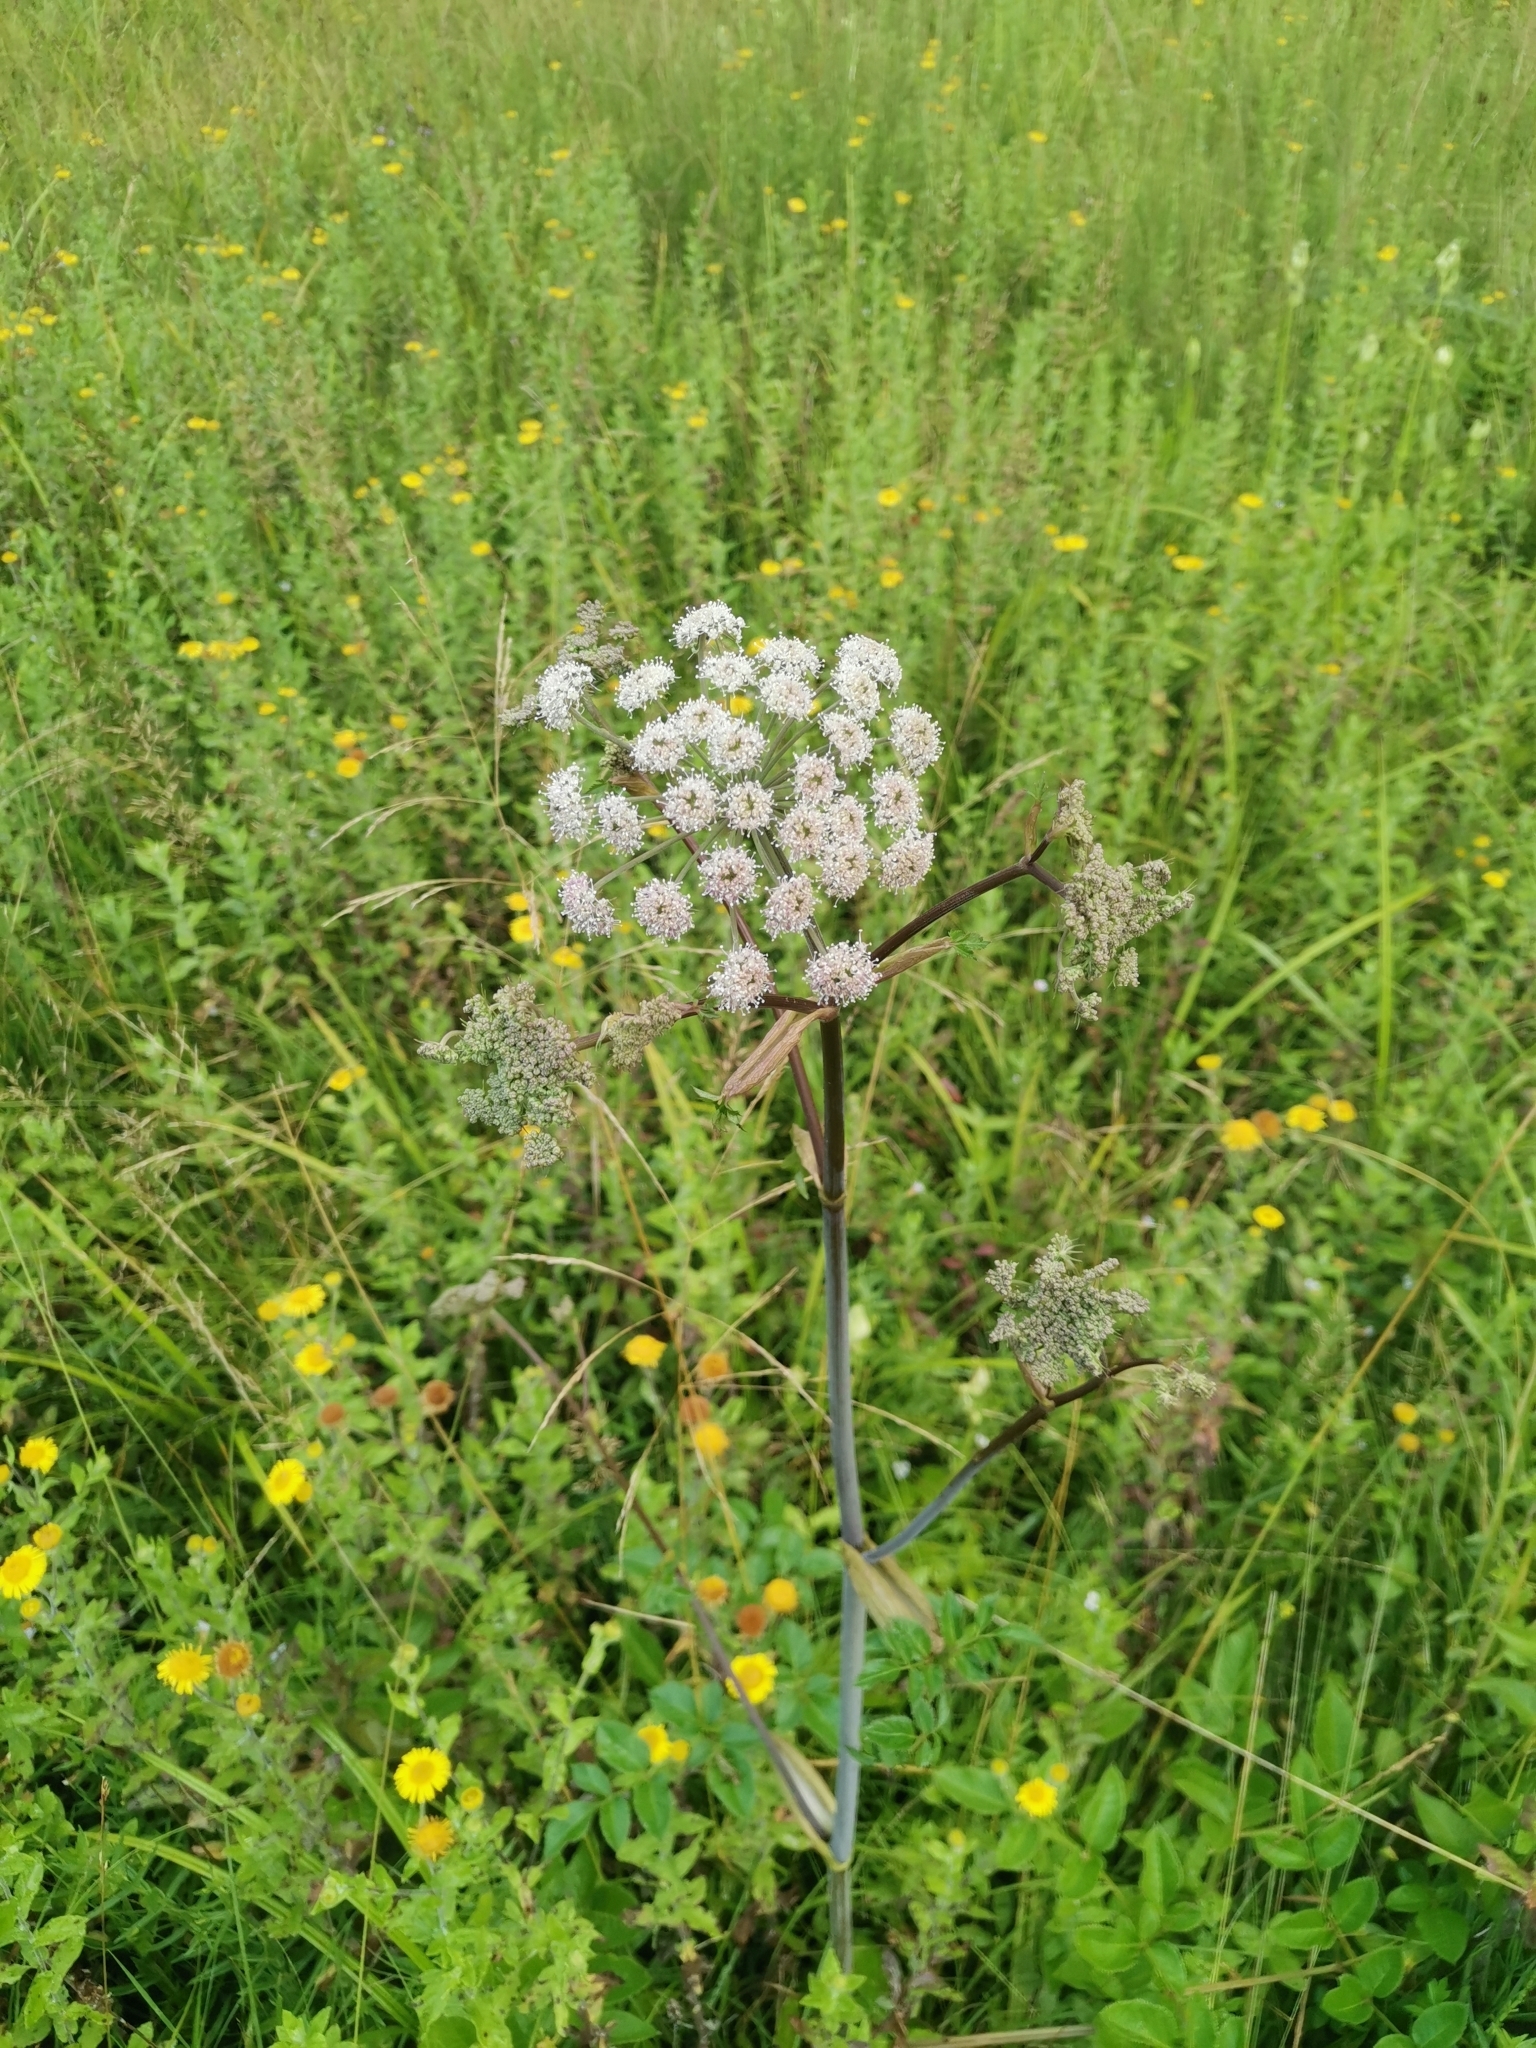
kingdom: Plantae
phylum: Tracheophyta
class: Magnoliopsida
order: Apiales
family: Apiaceae
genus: Angelica
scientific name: Angelica sylvestris
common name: Wild angelica
